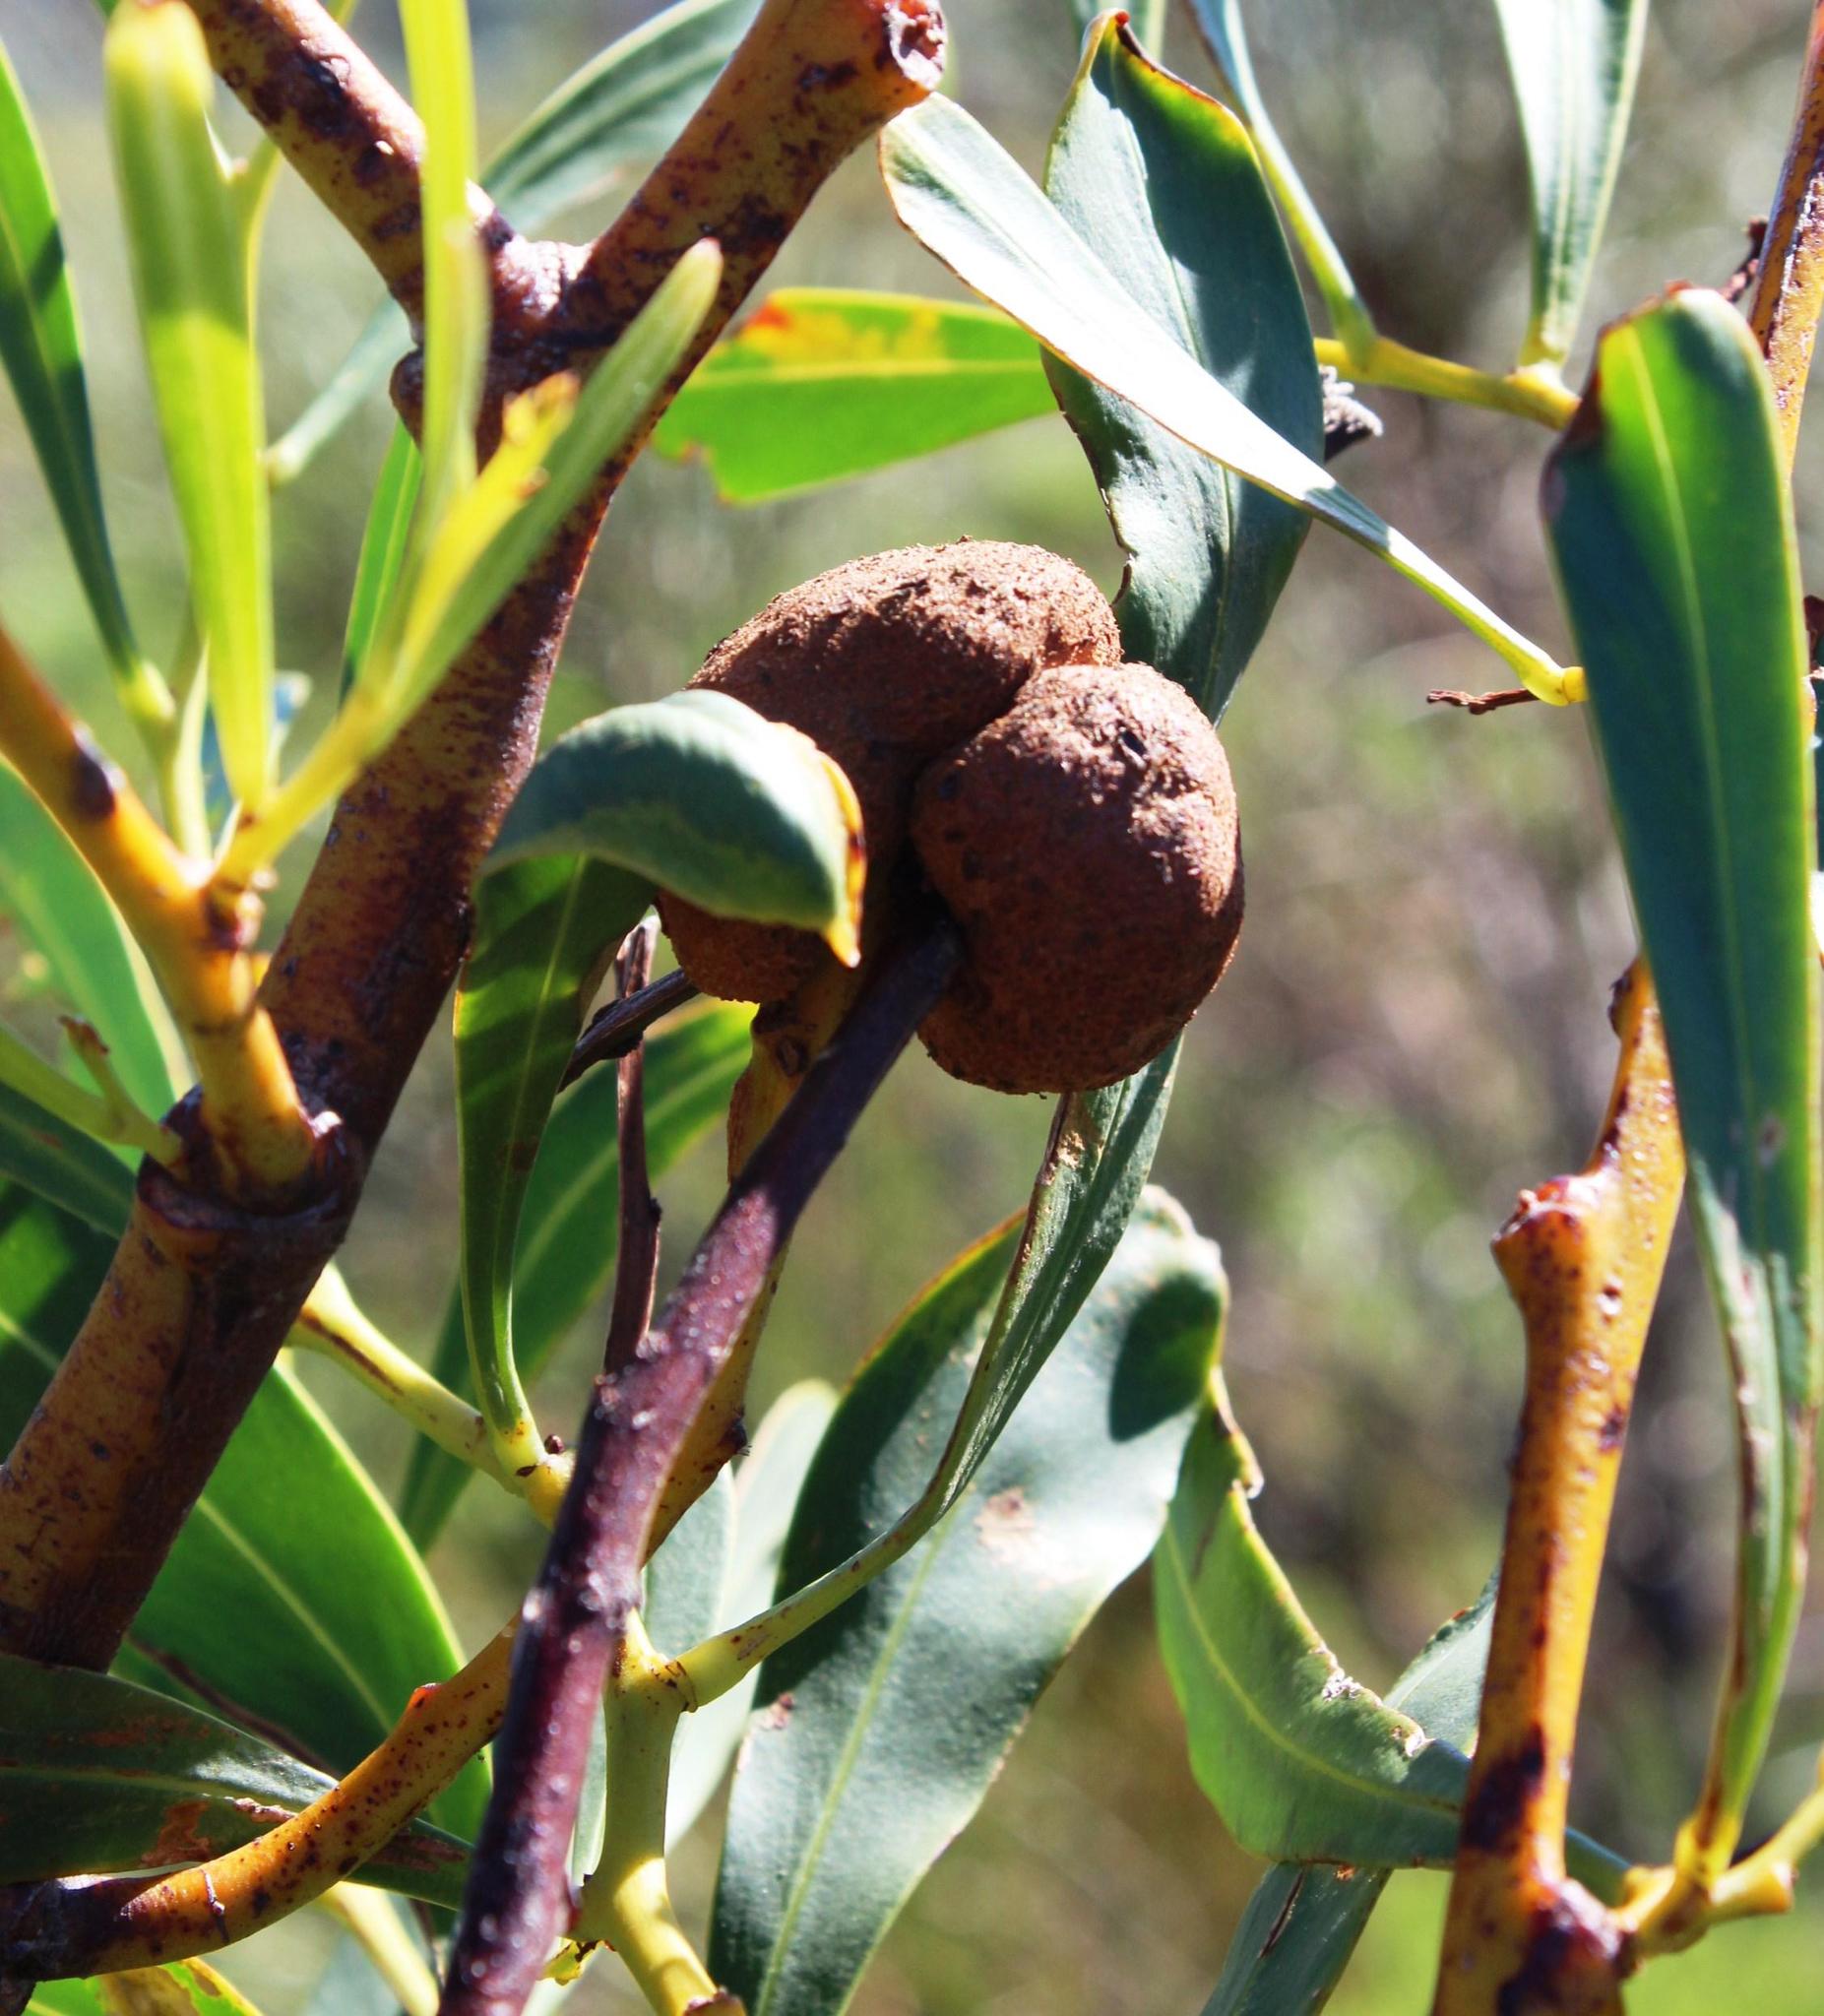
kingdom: Fungi
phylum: Basidiomycota
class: Pucciniomycetes
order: Pucciniales
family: Uromycladiaceae
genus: Uromycladium
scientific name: Uromycladium morrisii
